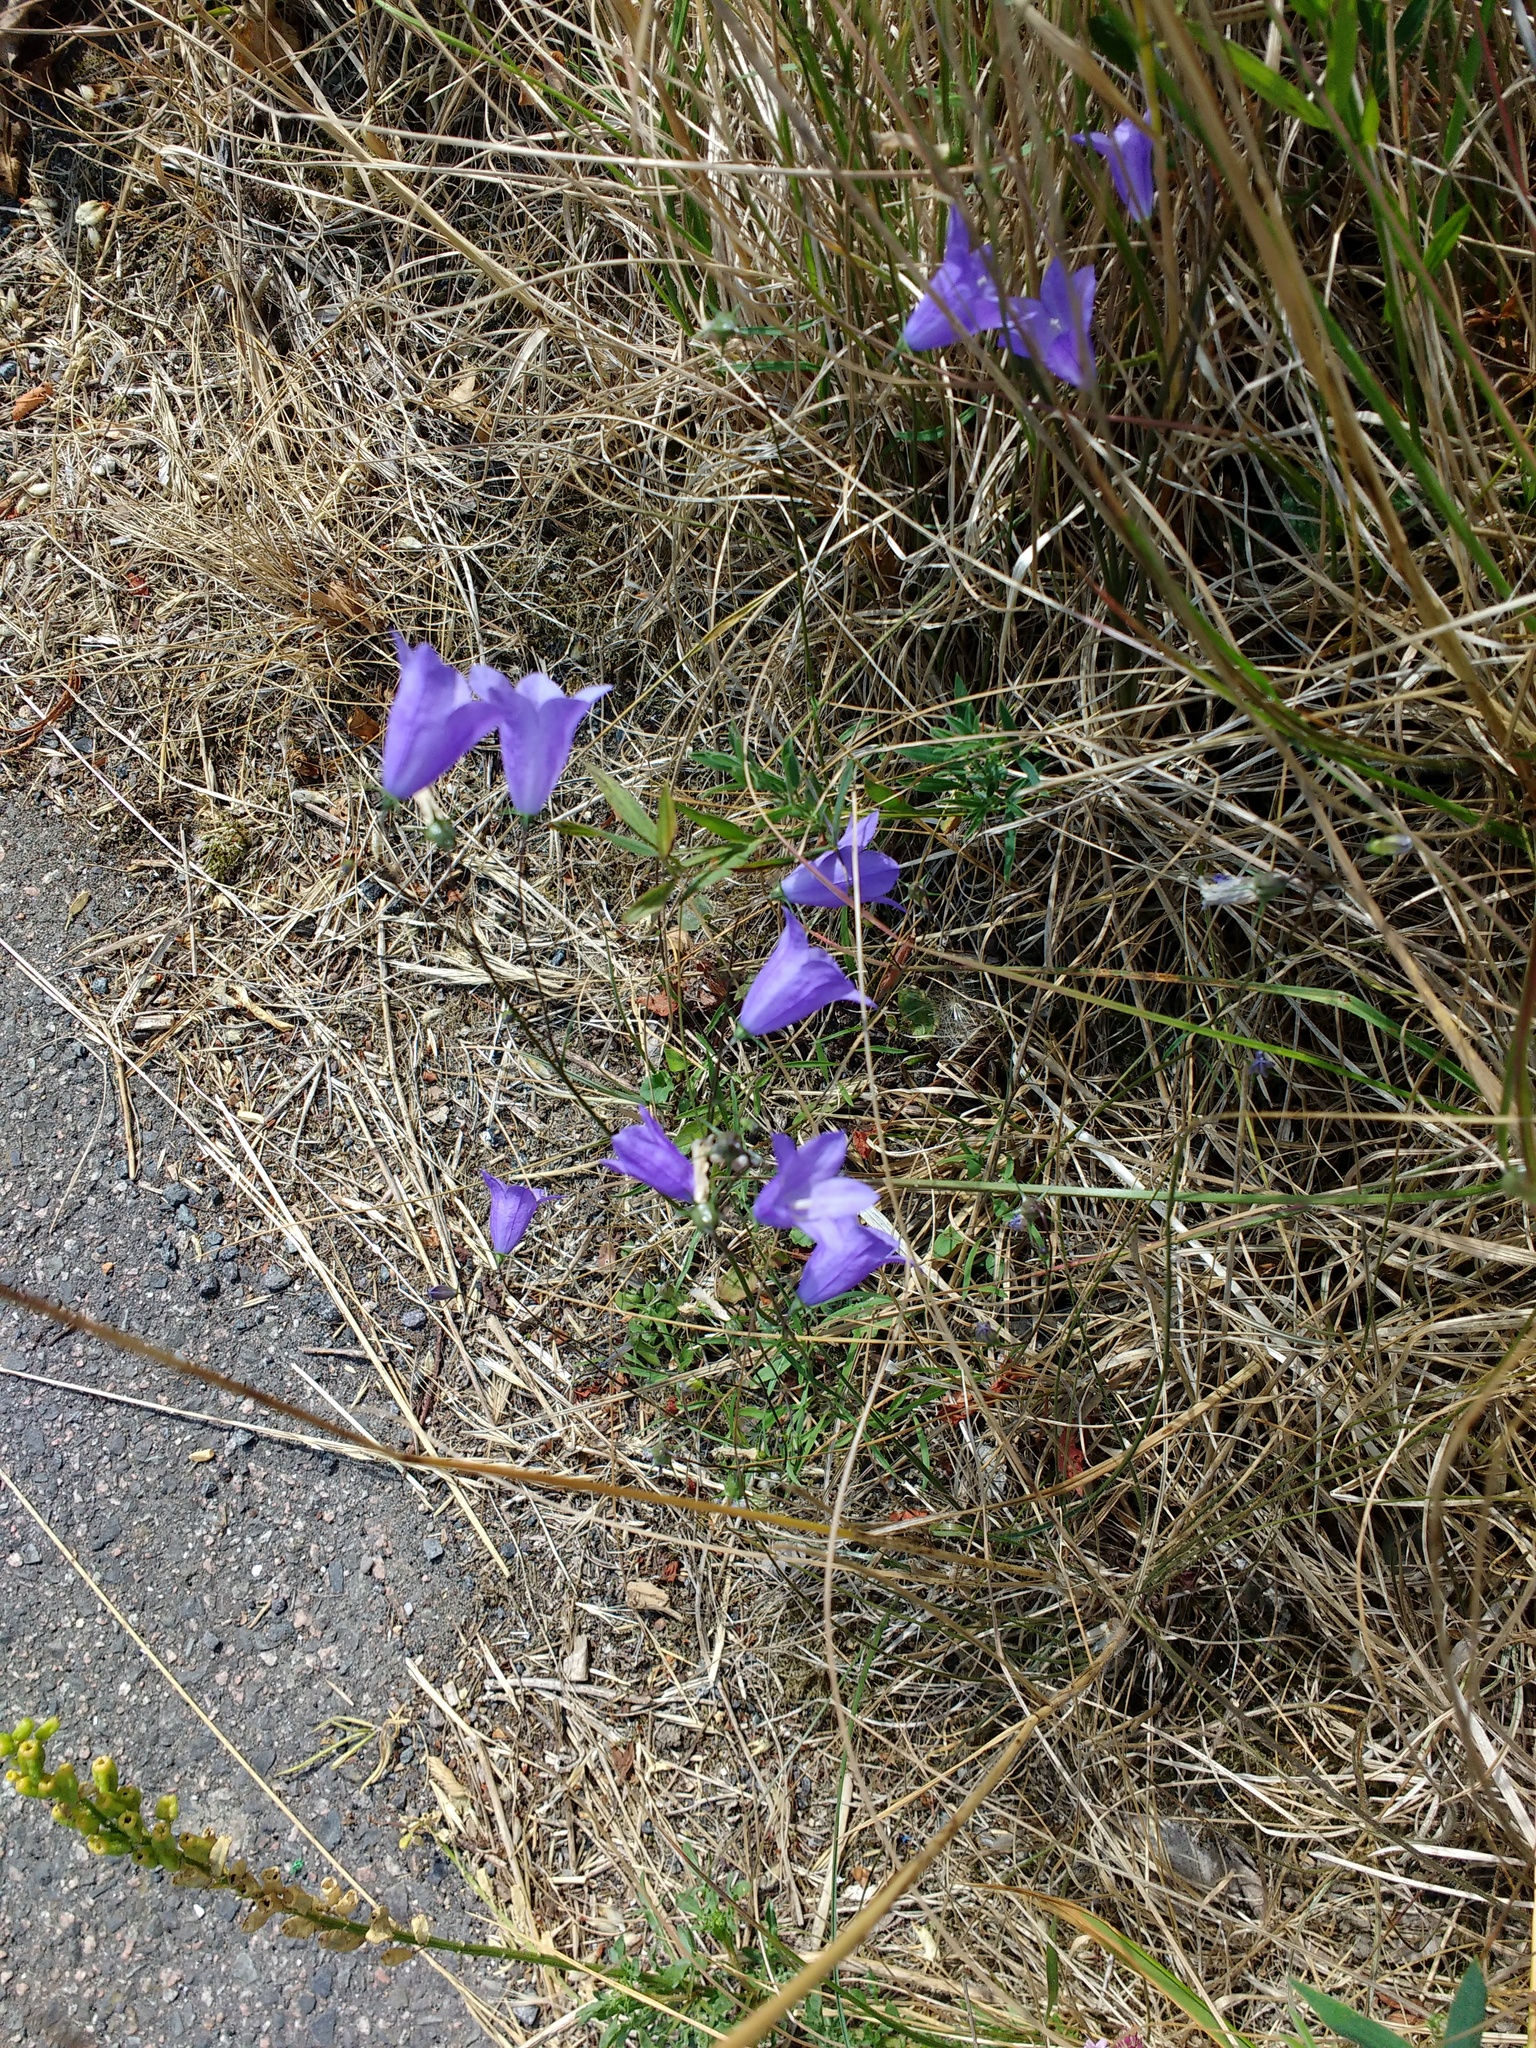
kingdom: Plantae
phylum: Tracheophyta
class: Magnoliopsida
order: Asterales
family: Campanulaceae
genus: Campanula
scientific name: Campanula rotundifolia
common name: Harebell
